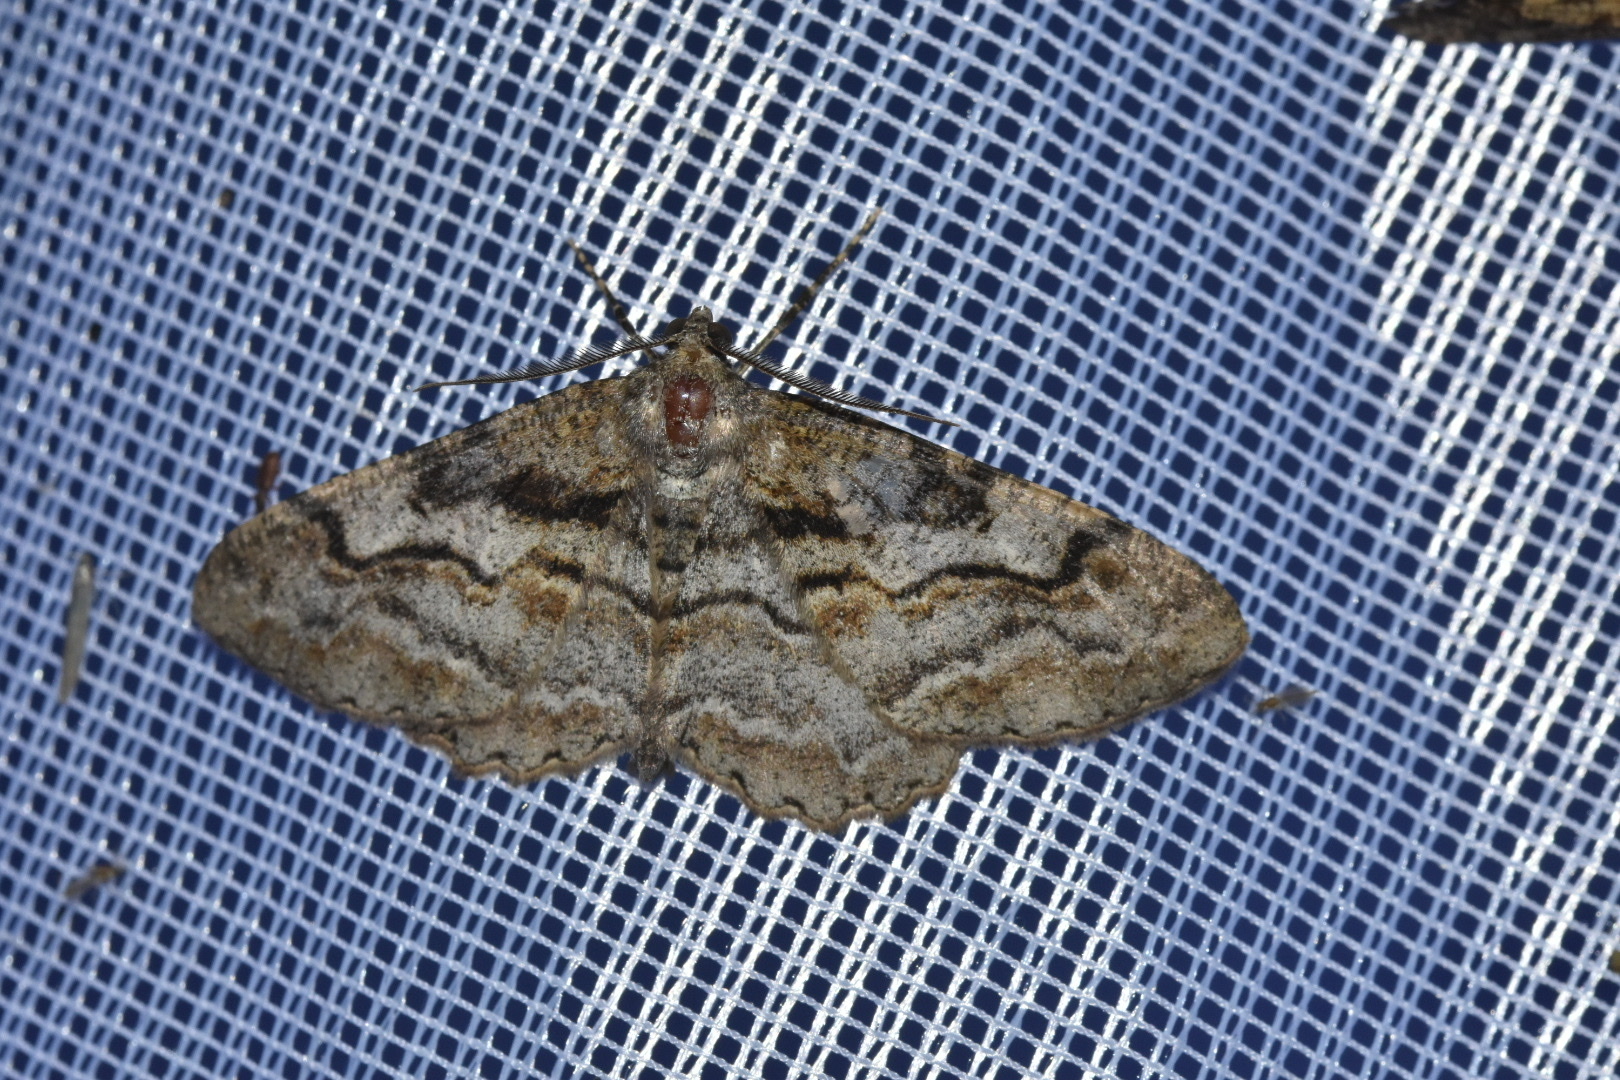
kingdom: Animalia
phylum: Arthropoda
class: Insecta
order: Lepidoptera
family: Geometridae
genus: Alcis
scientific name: Alcis repandata
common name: Mottled beauty
